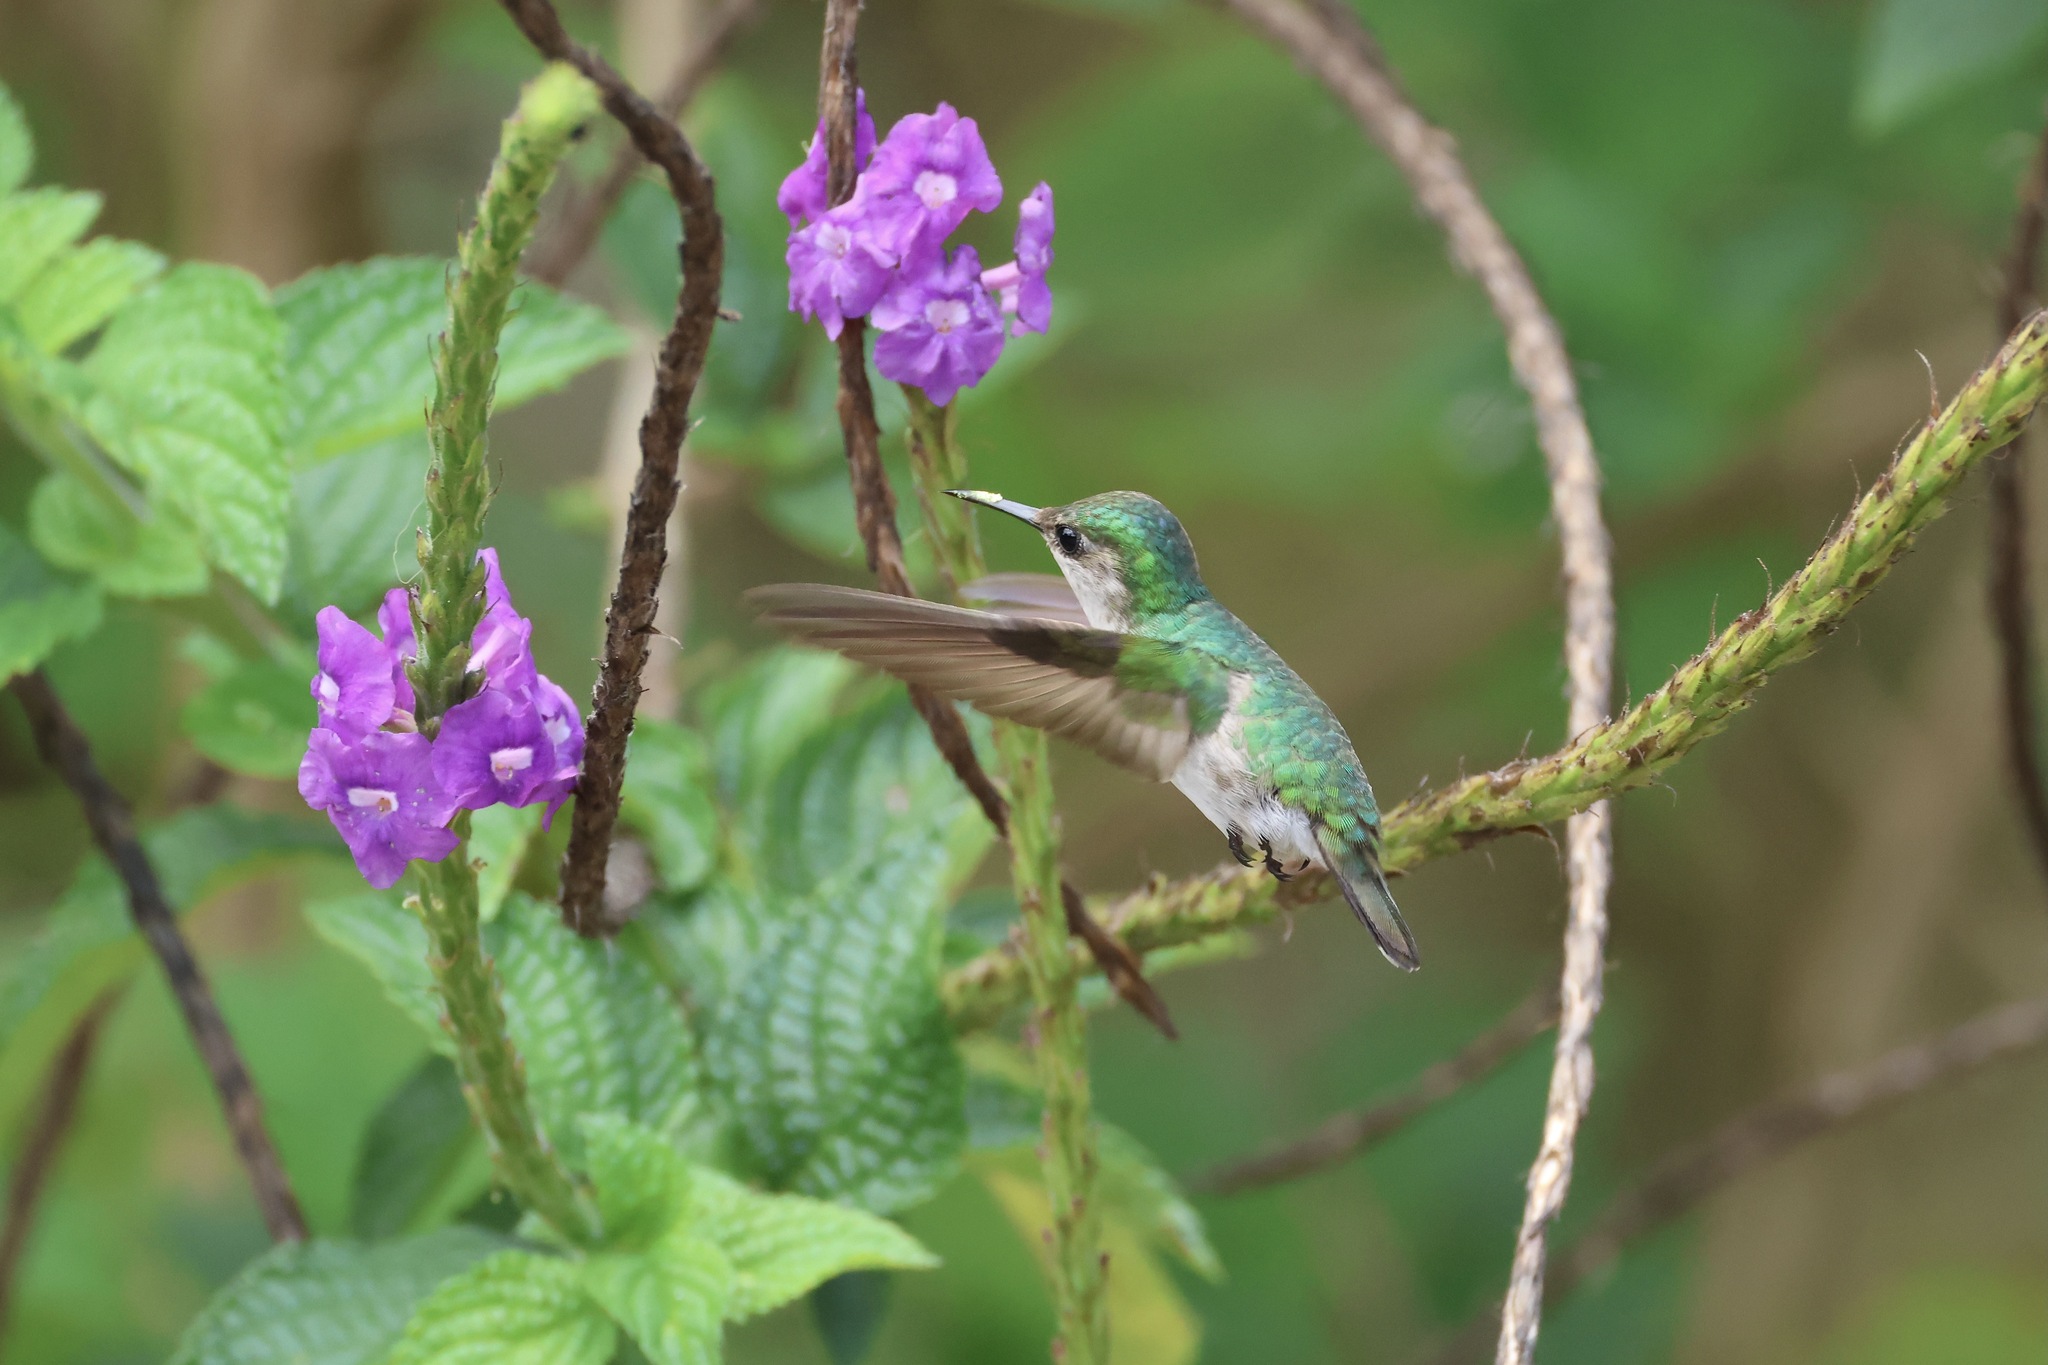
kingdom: Animalia
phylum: Chordata
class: Aves
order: Apodiformes
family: Trochilidae
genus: Microchera
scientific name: Microchera albocoronata
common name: Snowcap
